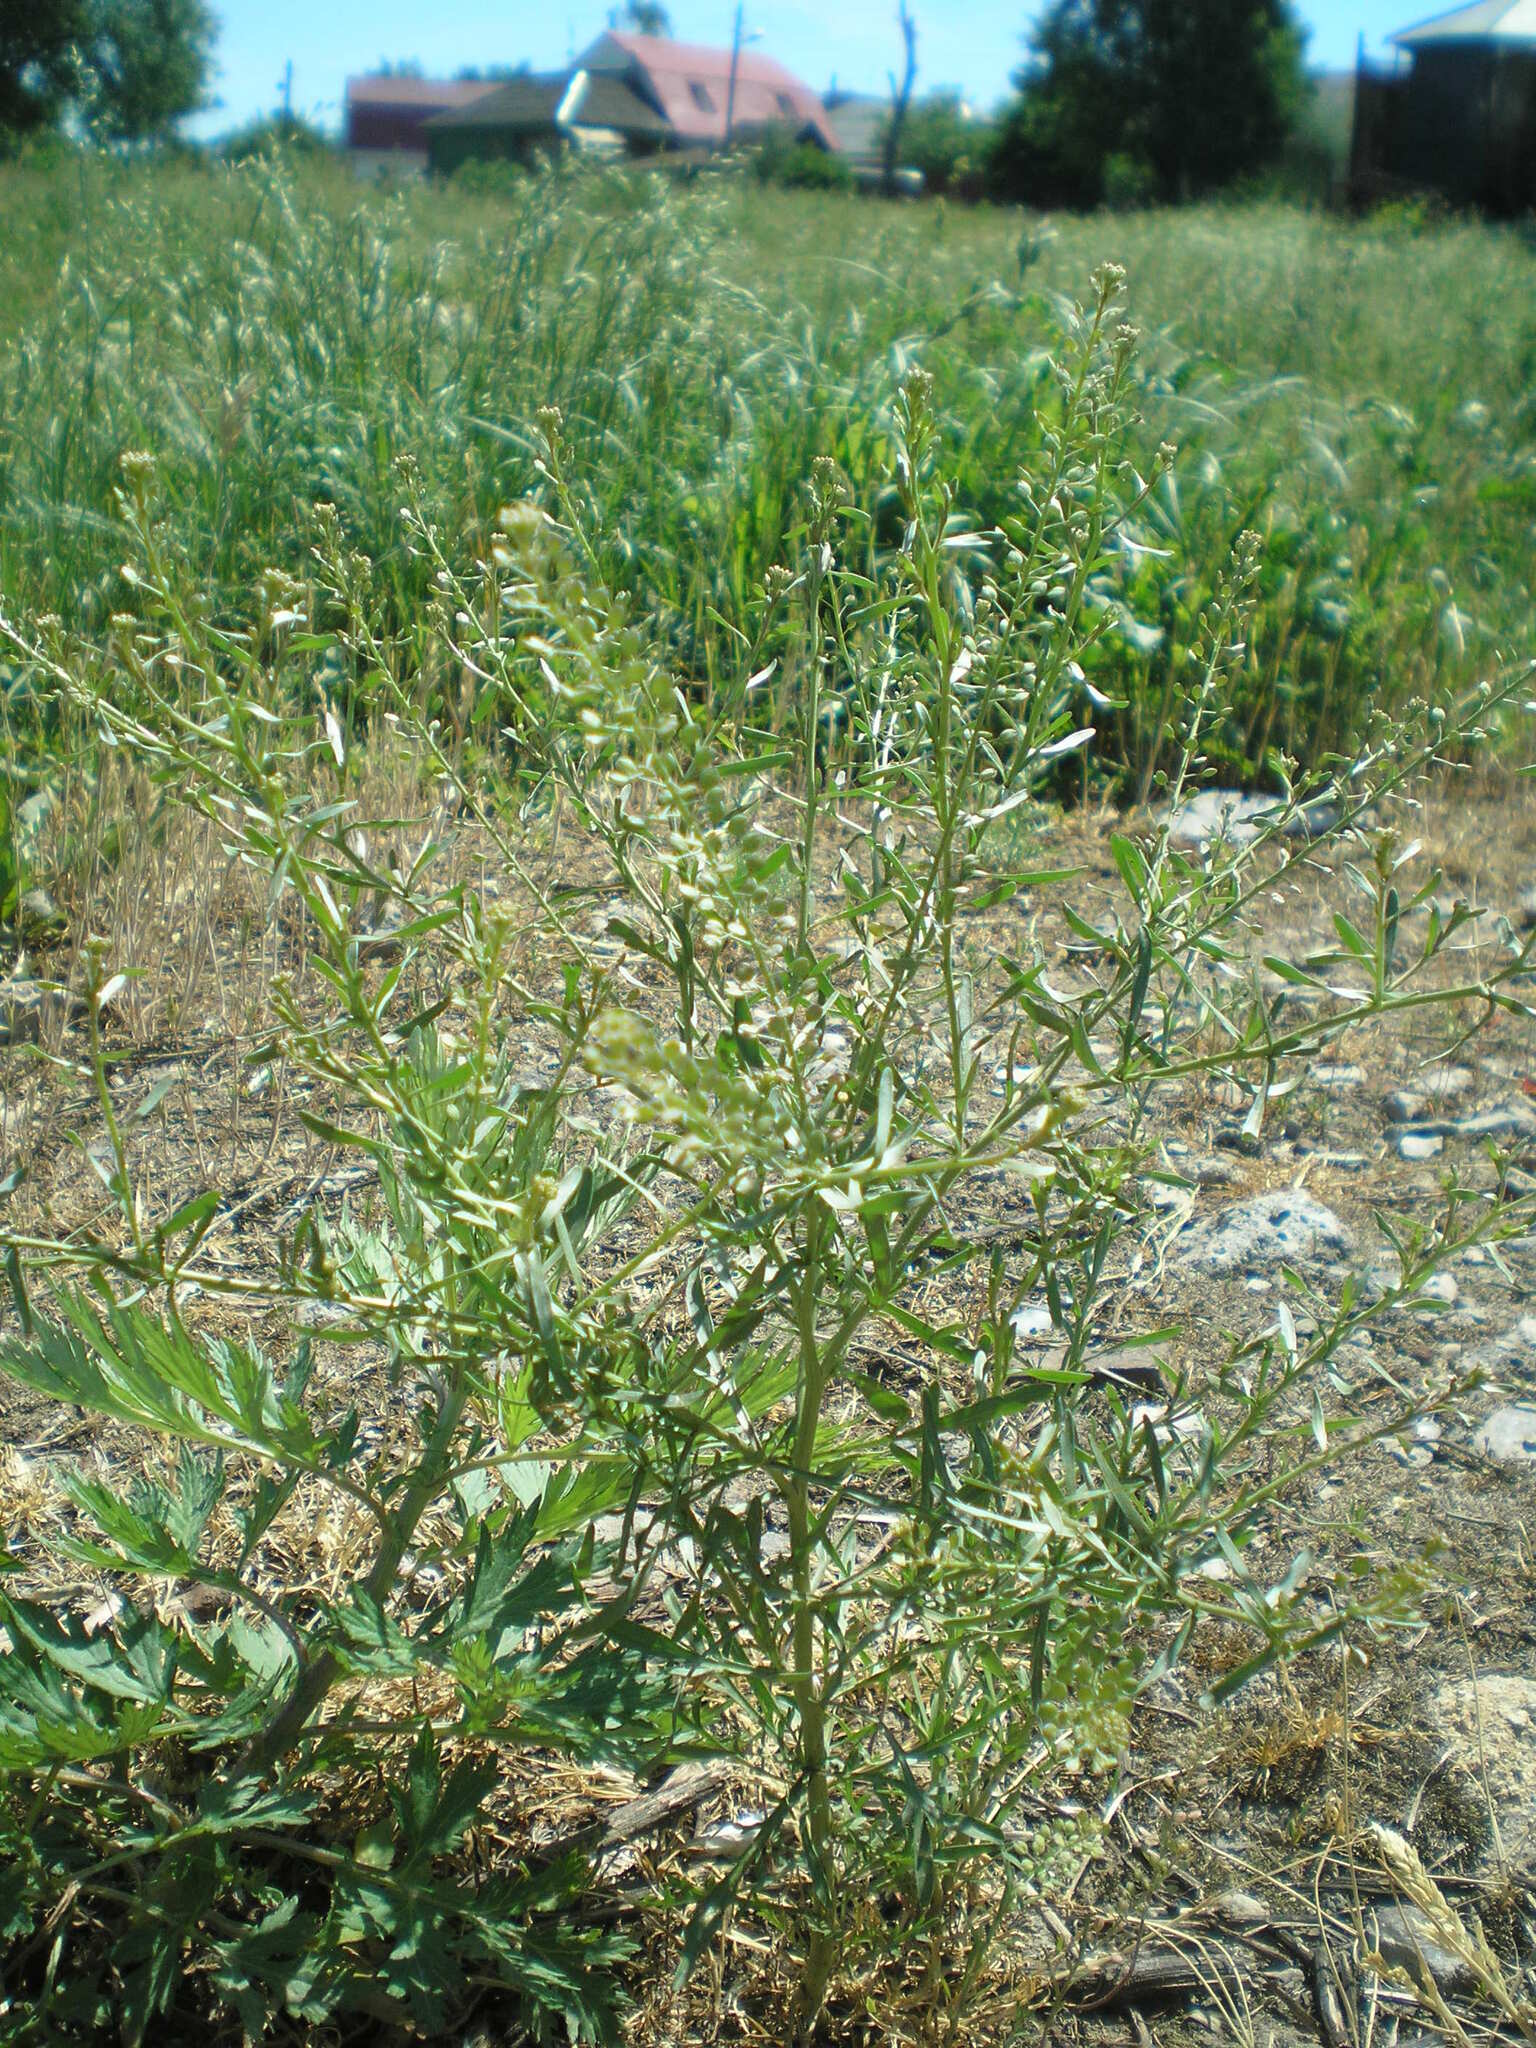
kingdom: Plantae
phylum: Tracheophyta
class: Magnoliopsida
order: Brassicales
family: Brassicaceae
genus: Lepidium
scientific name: Lepidium ruderale
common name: Narrow-leaved pepperwort
